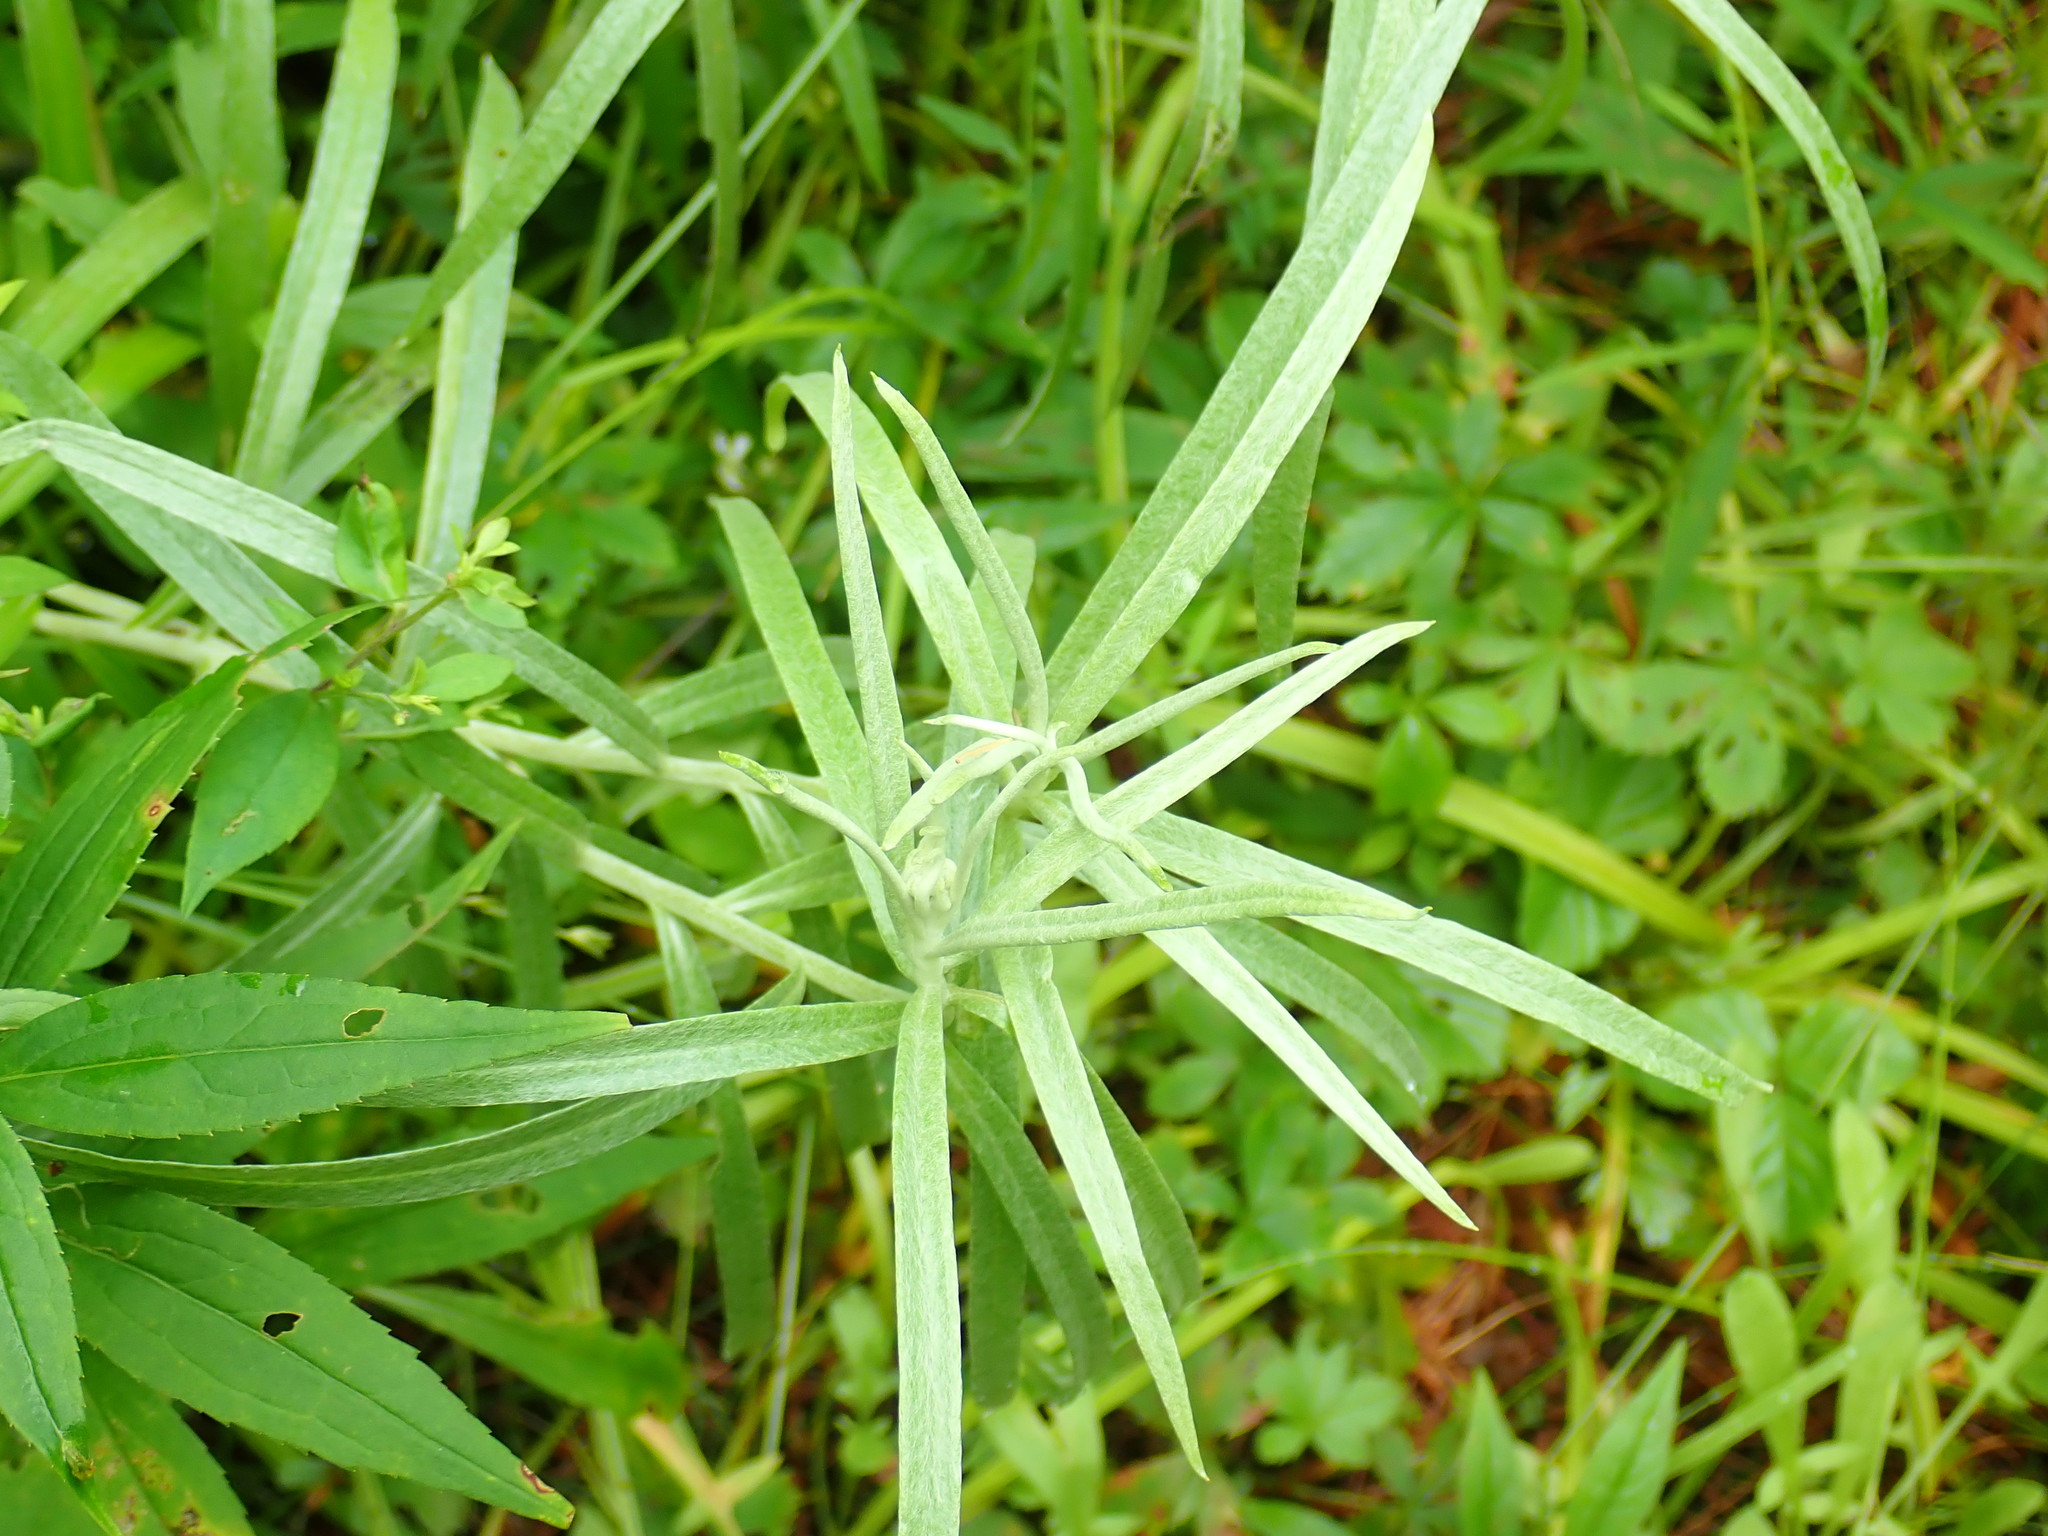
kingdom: Plantae
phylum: Tracheophyta
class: Magnoliopsida
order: Asterales
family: Asteraceae
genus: Anaphalis
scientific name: Anaphalis margaritacea
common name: Pearly everlasting
